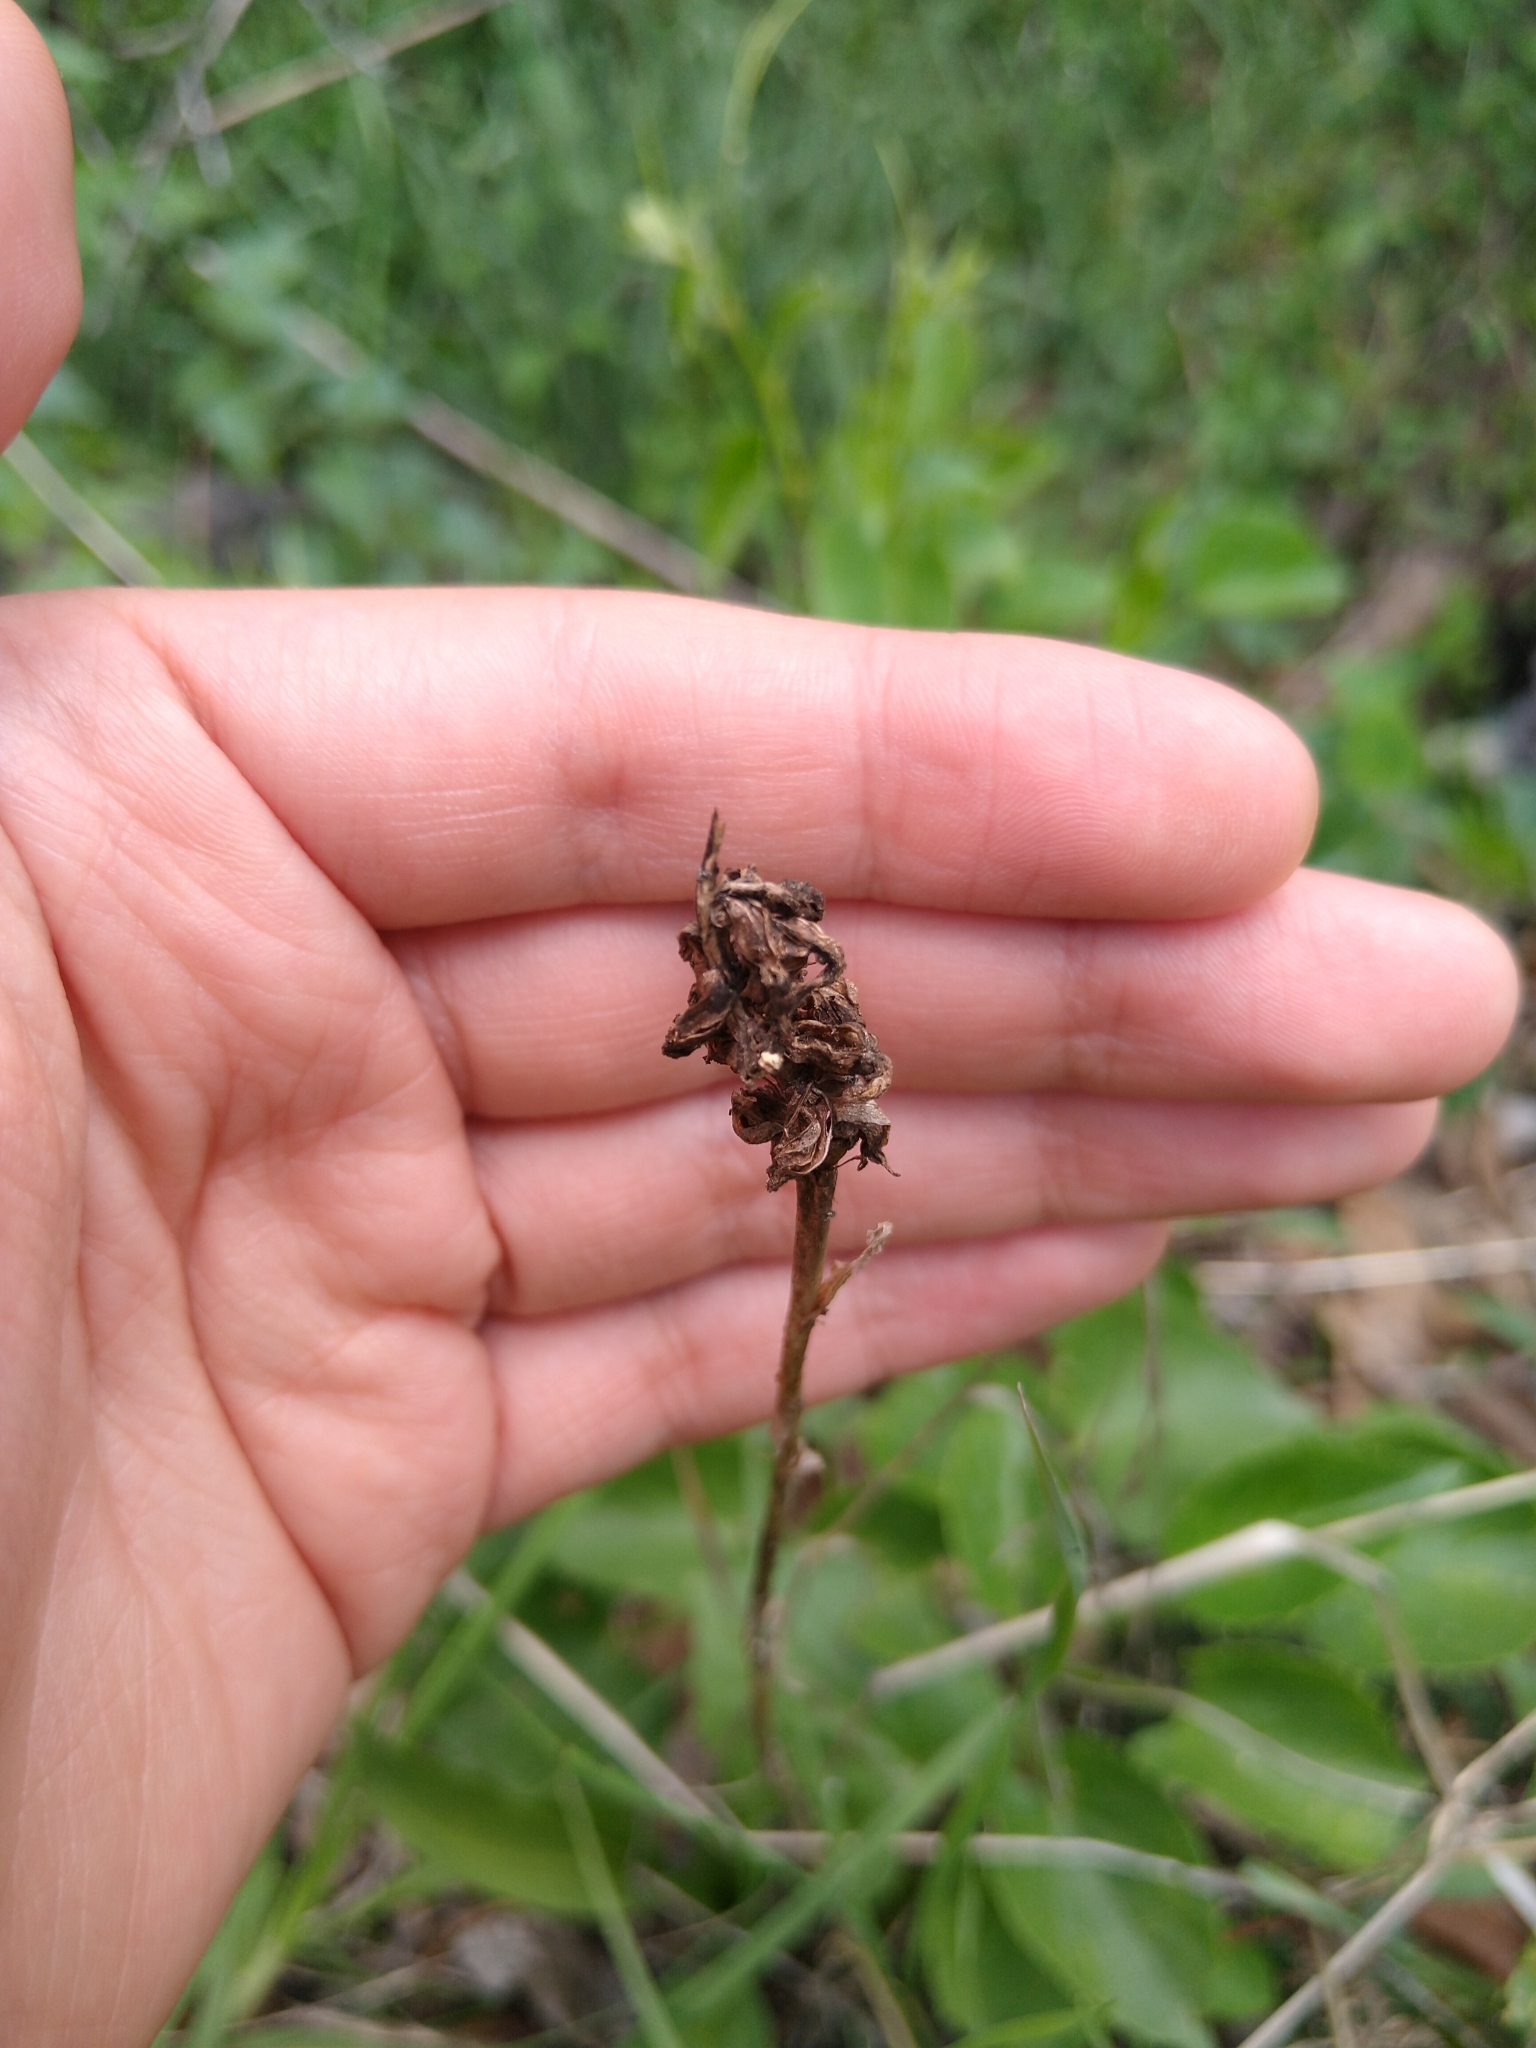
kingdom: Plantae
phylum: Tracheophyta
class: Liliopsida
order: Asparagales
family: Orchidaceae
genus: Aulosepalum
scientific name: Aulosepalum pyramidale
